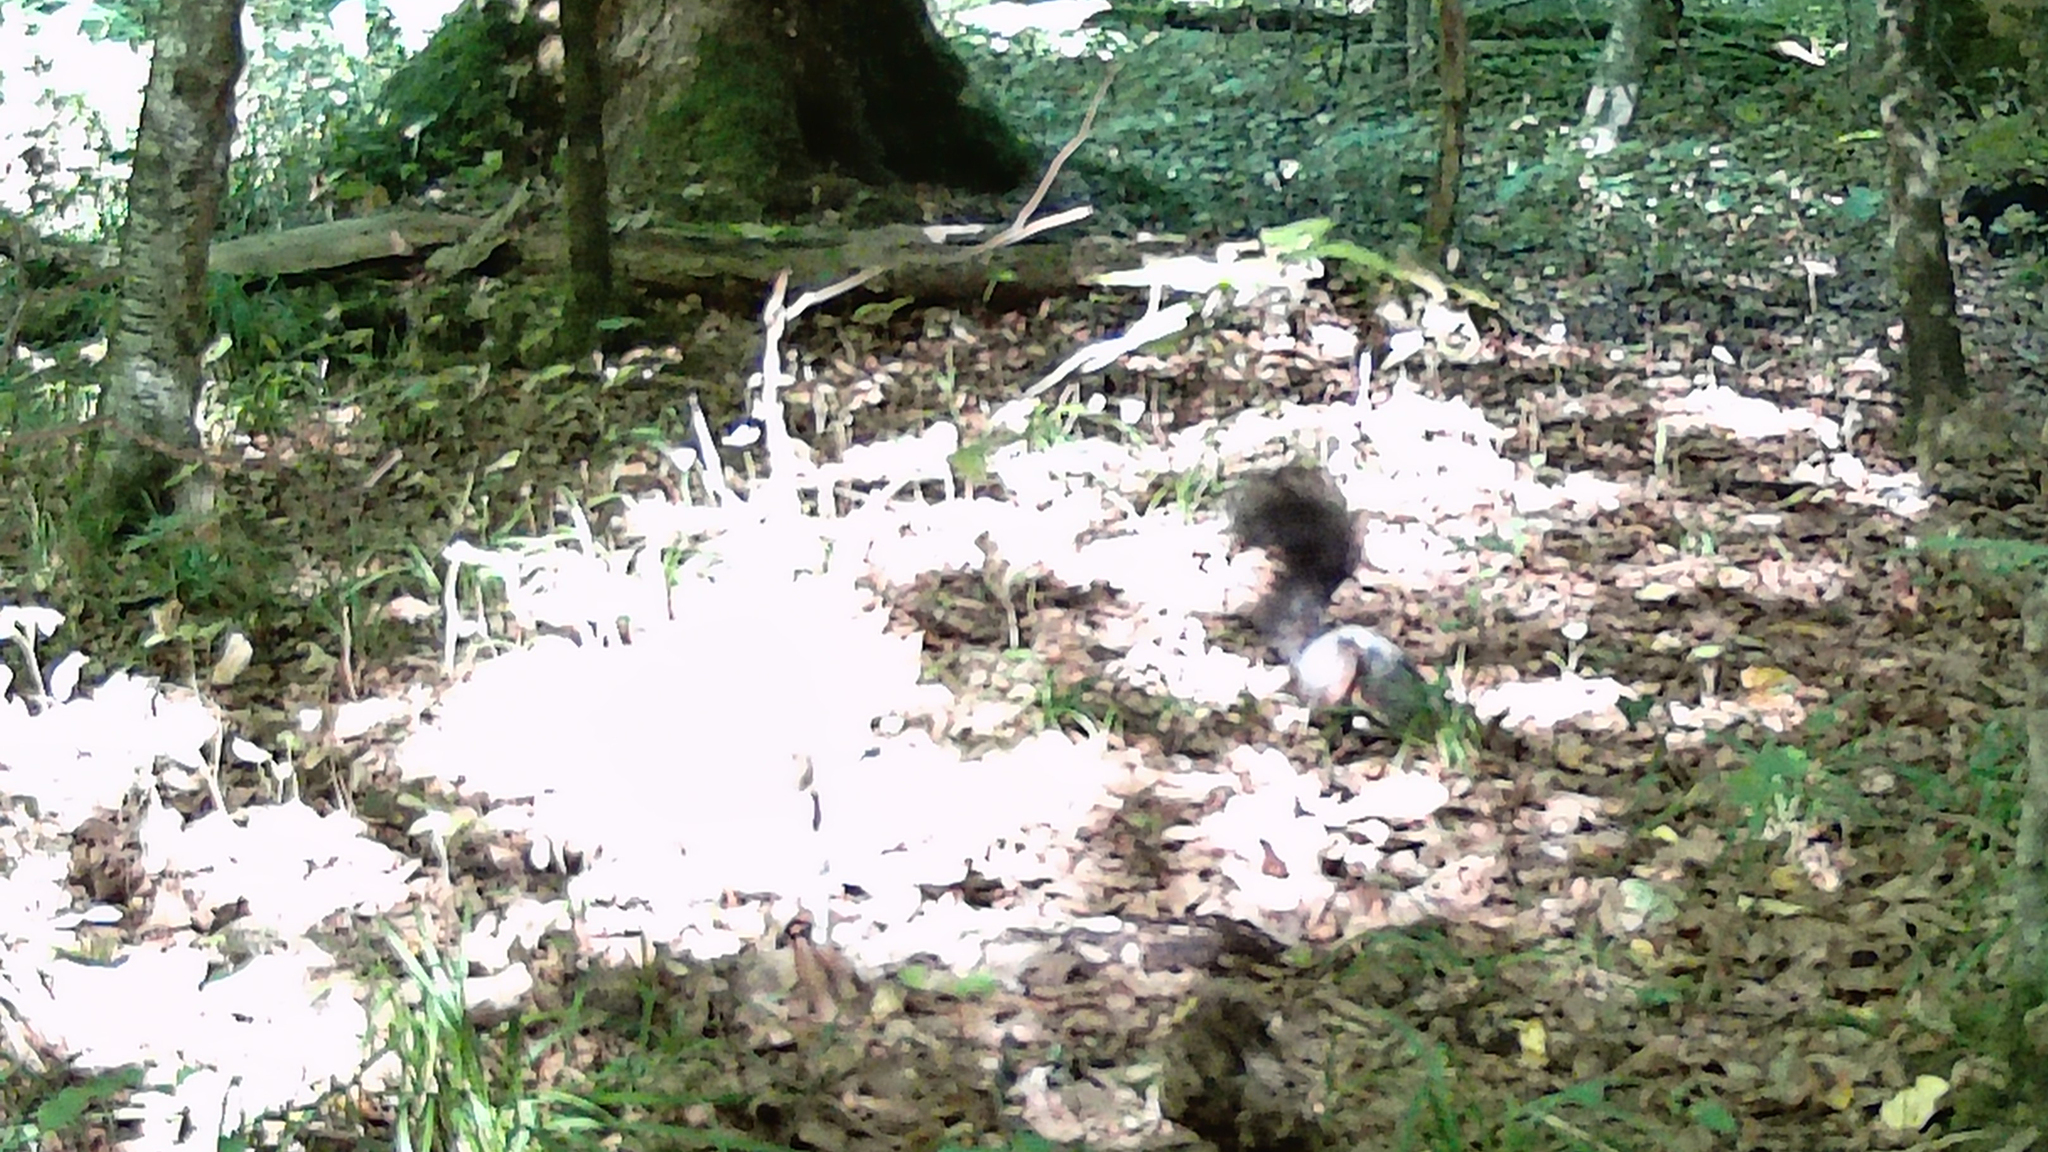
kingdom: Animalia
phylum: Chordata
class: Mammalia
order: Rodentia
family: Sciuridae
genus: Sciurus
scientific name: Sciurus vulgaris
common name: Eurasian red squirrel
